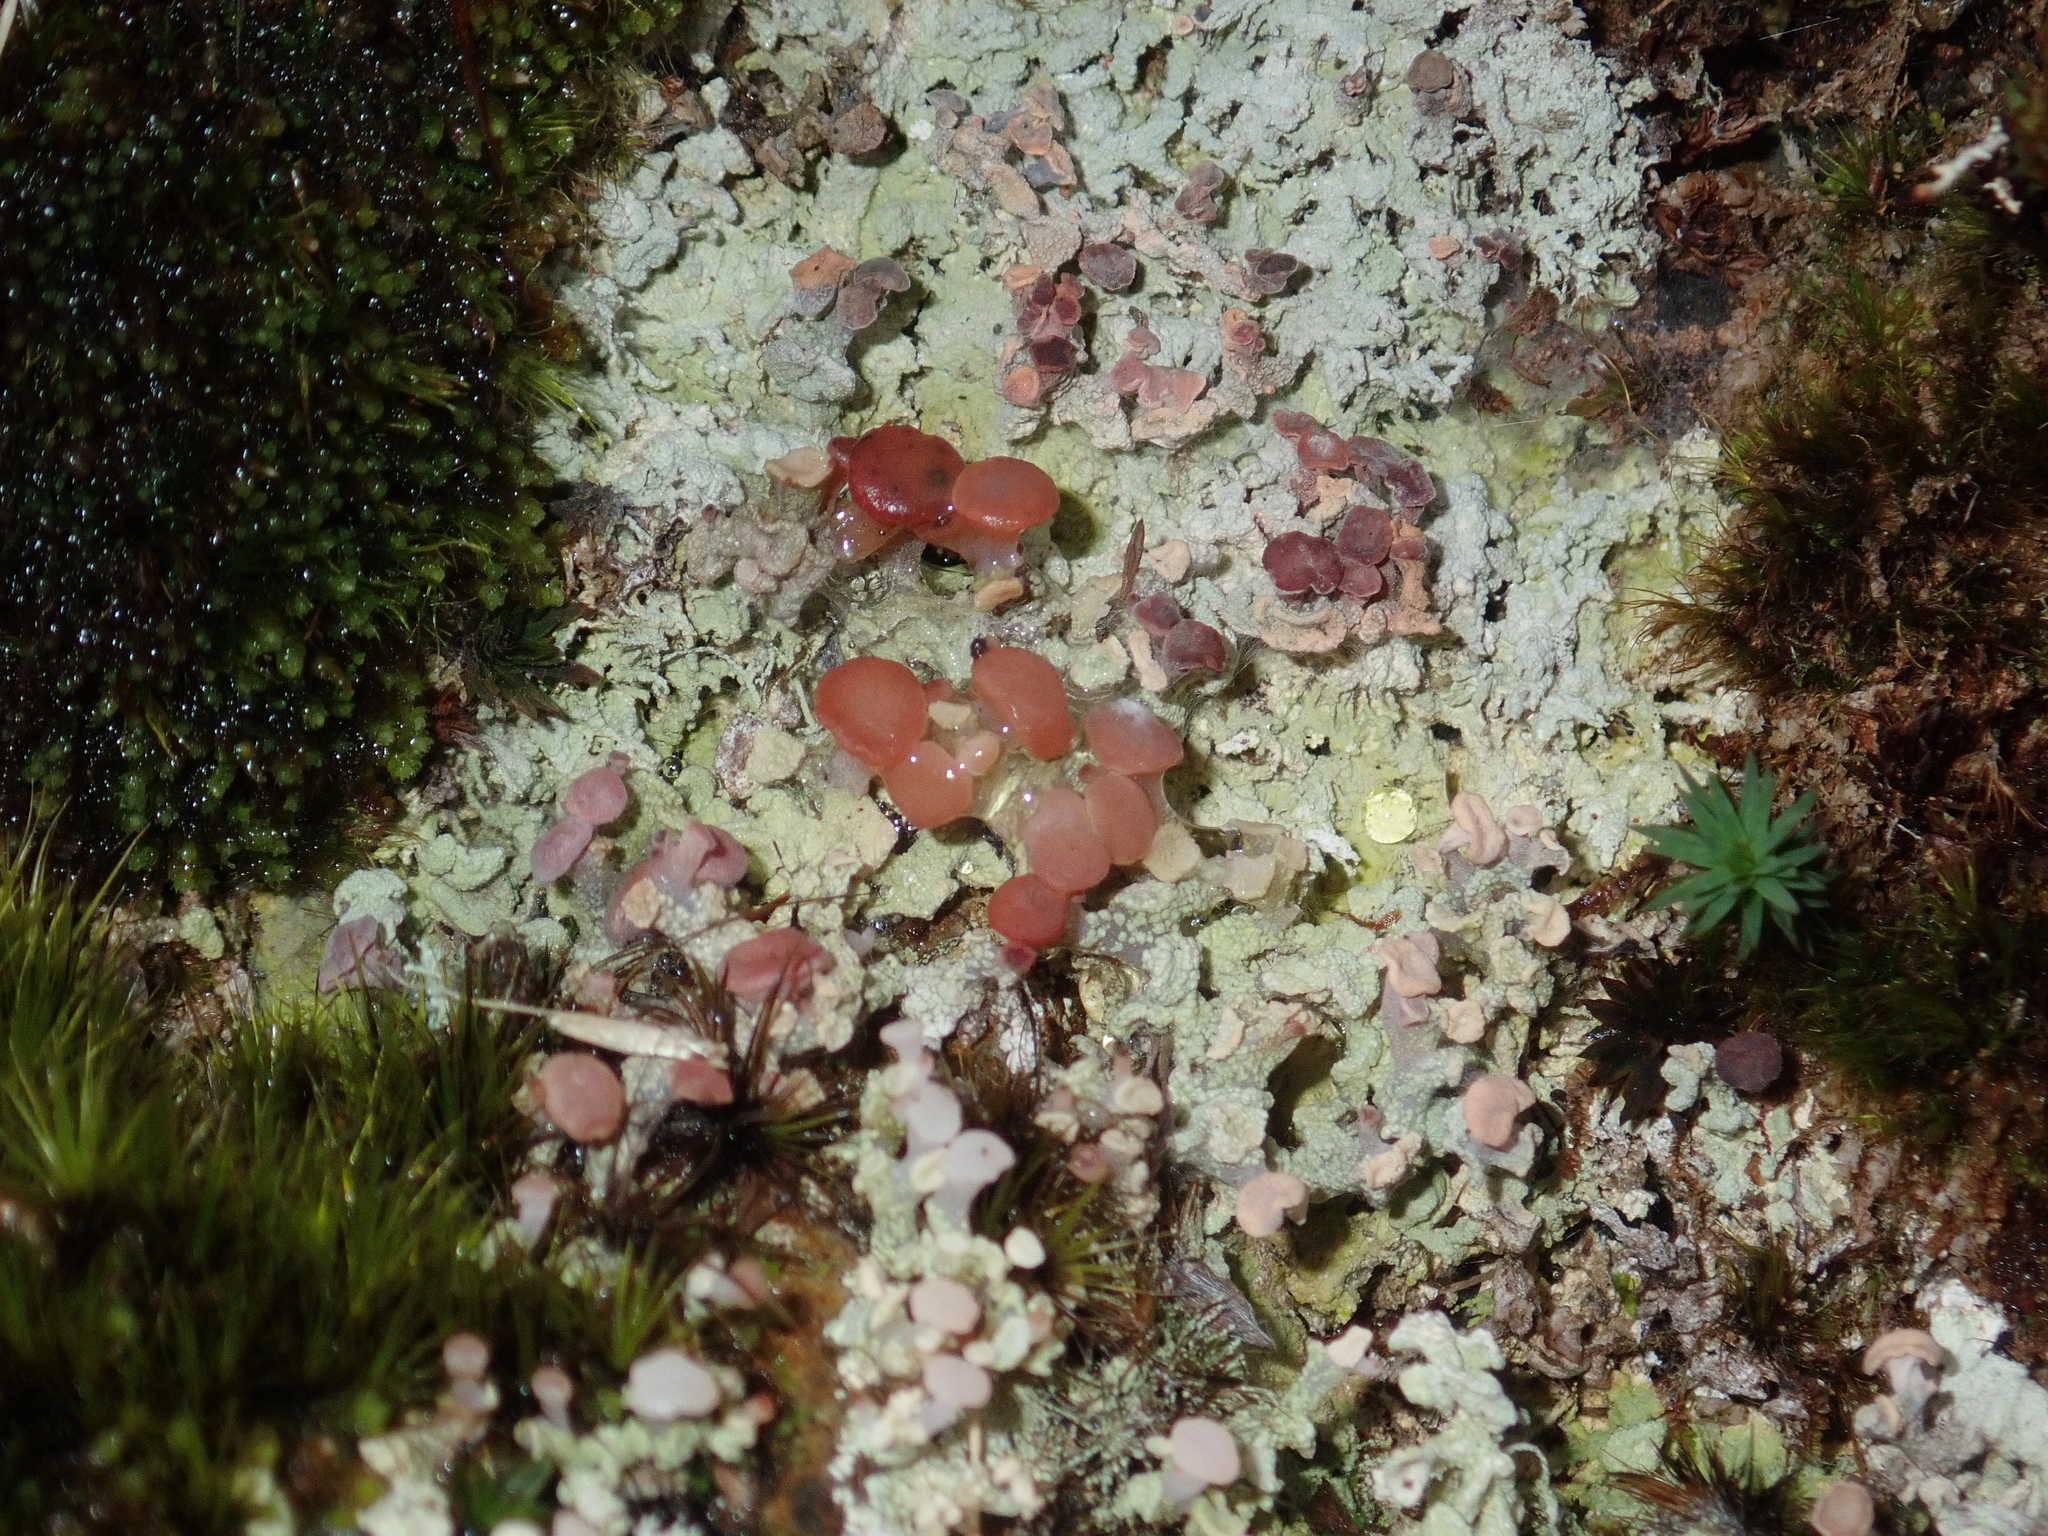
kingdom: Fungi
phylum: Ascomycota
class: Lecanoromycetes
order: Baeomycetales
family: Baeomycetaceae
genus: Baeomyces
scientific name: Baeomyces heteromorphus
